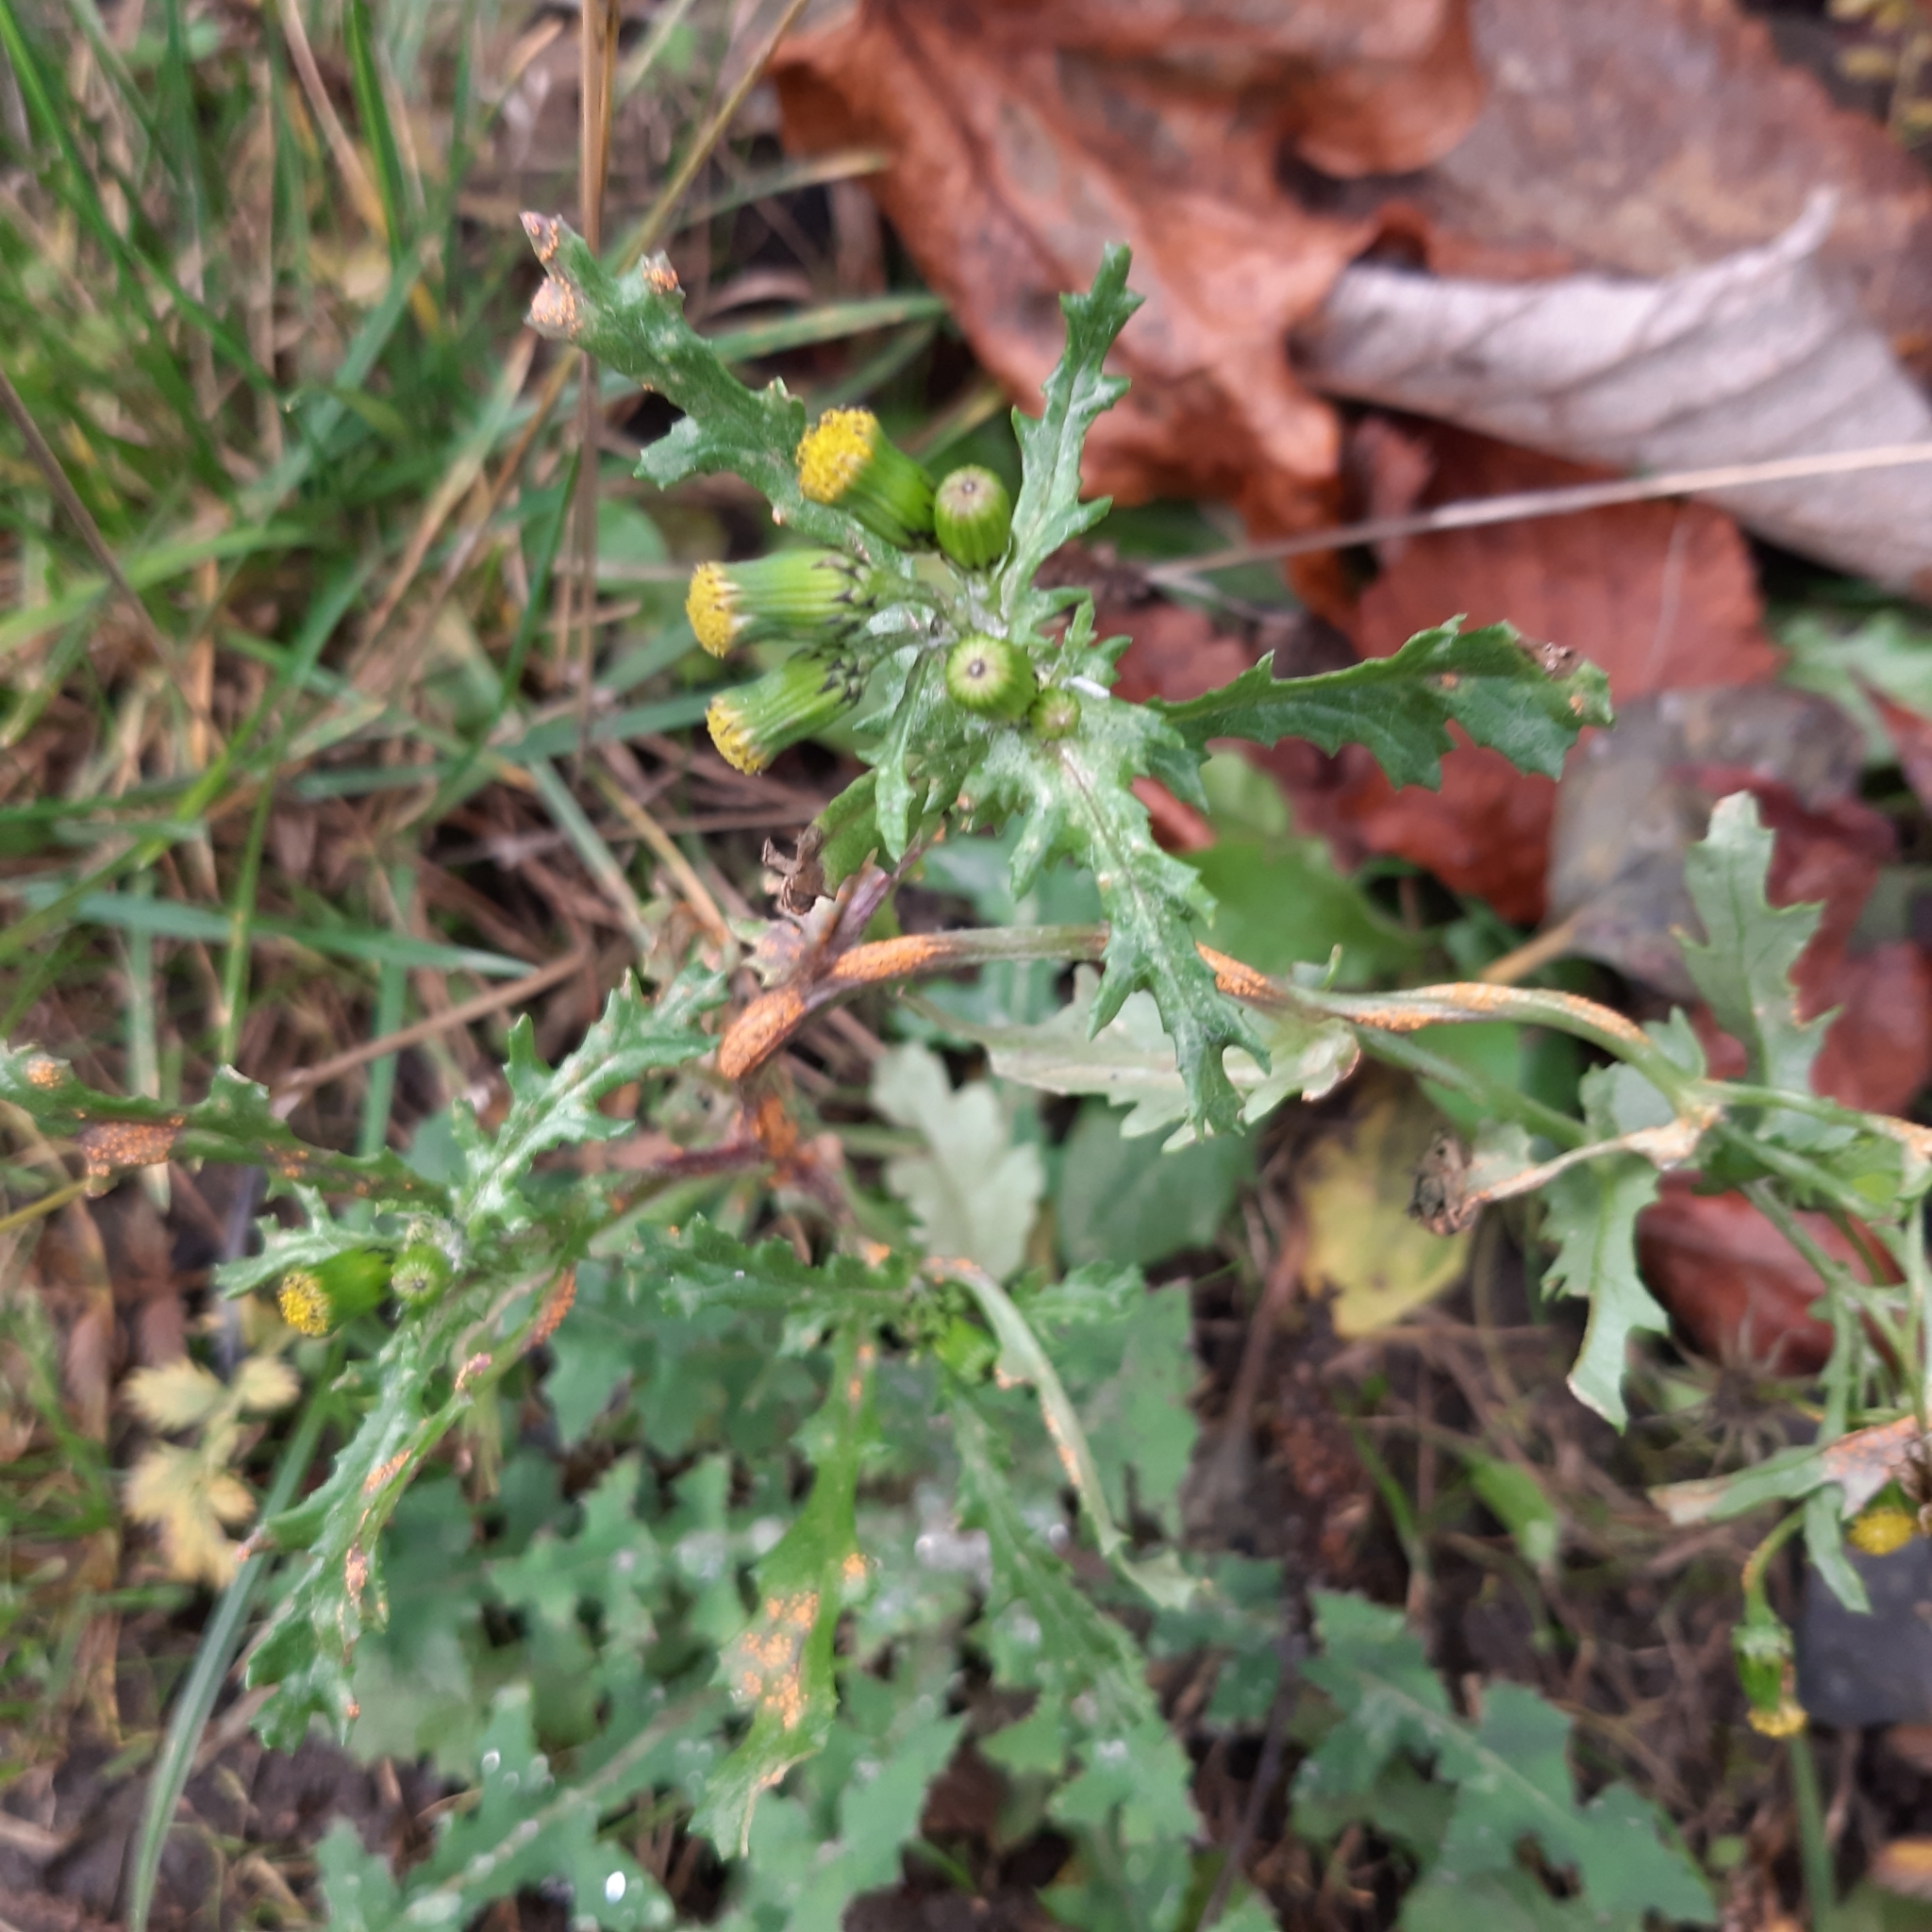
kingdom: Plantae
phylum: Tracheophyta
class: Magnoliopsida
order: Asterales
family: Asteraceae
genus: Senecio
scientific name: Senecio vulgaris
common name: Old-man-in-the-spring
